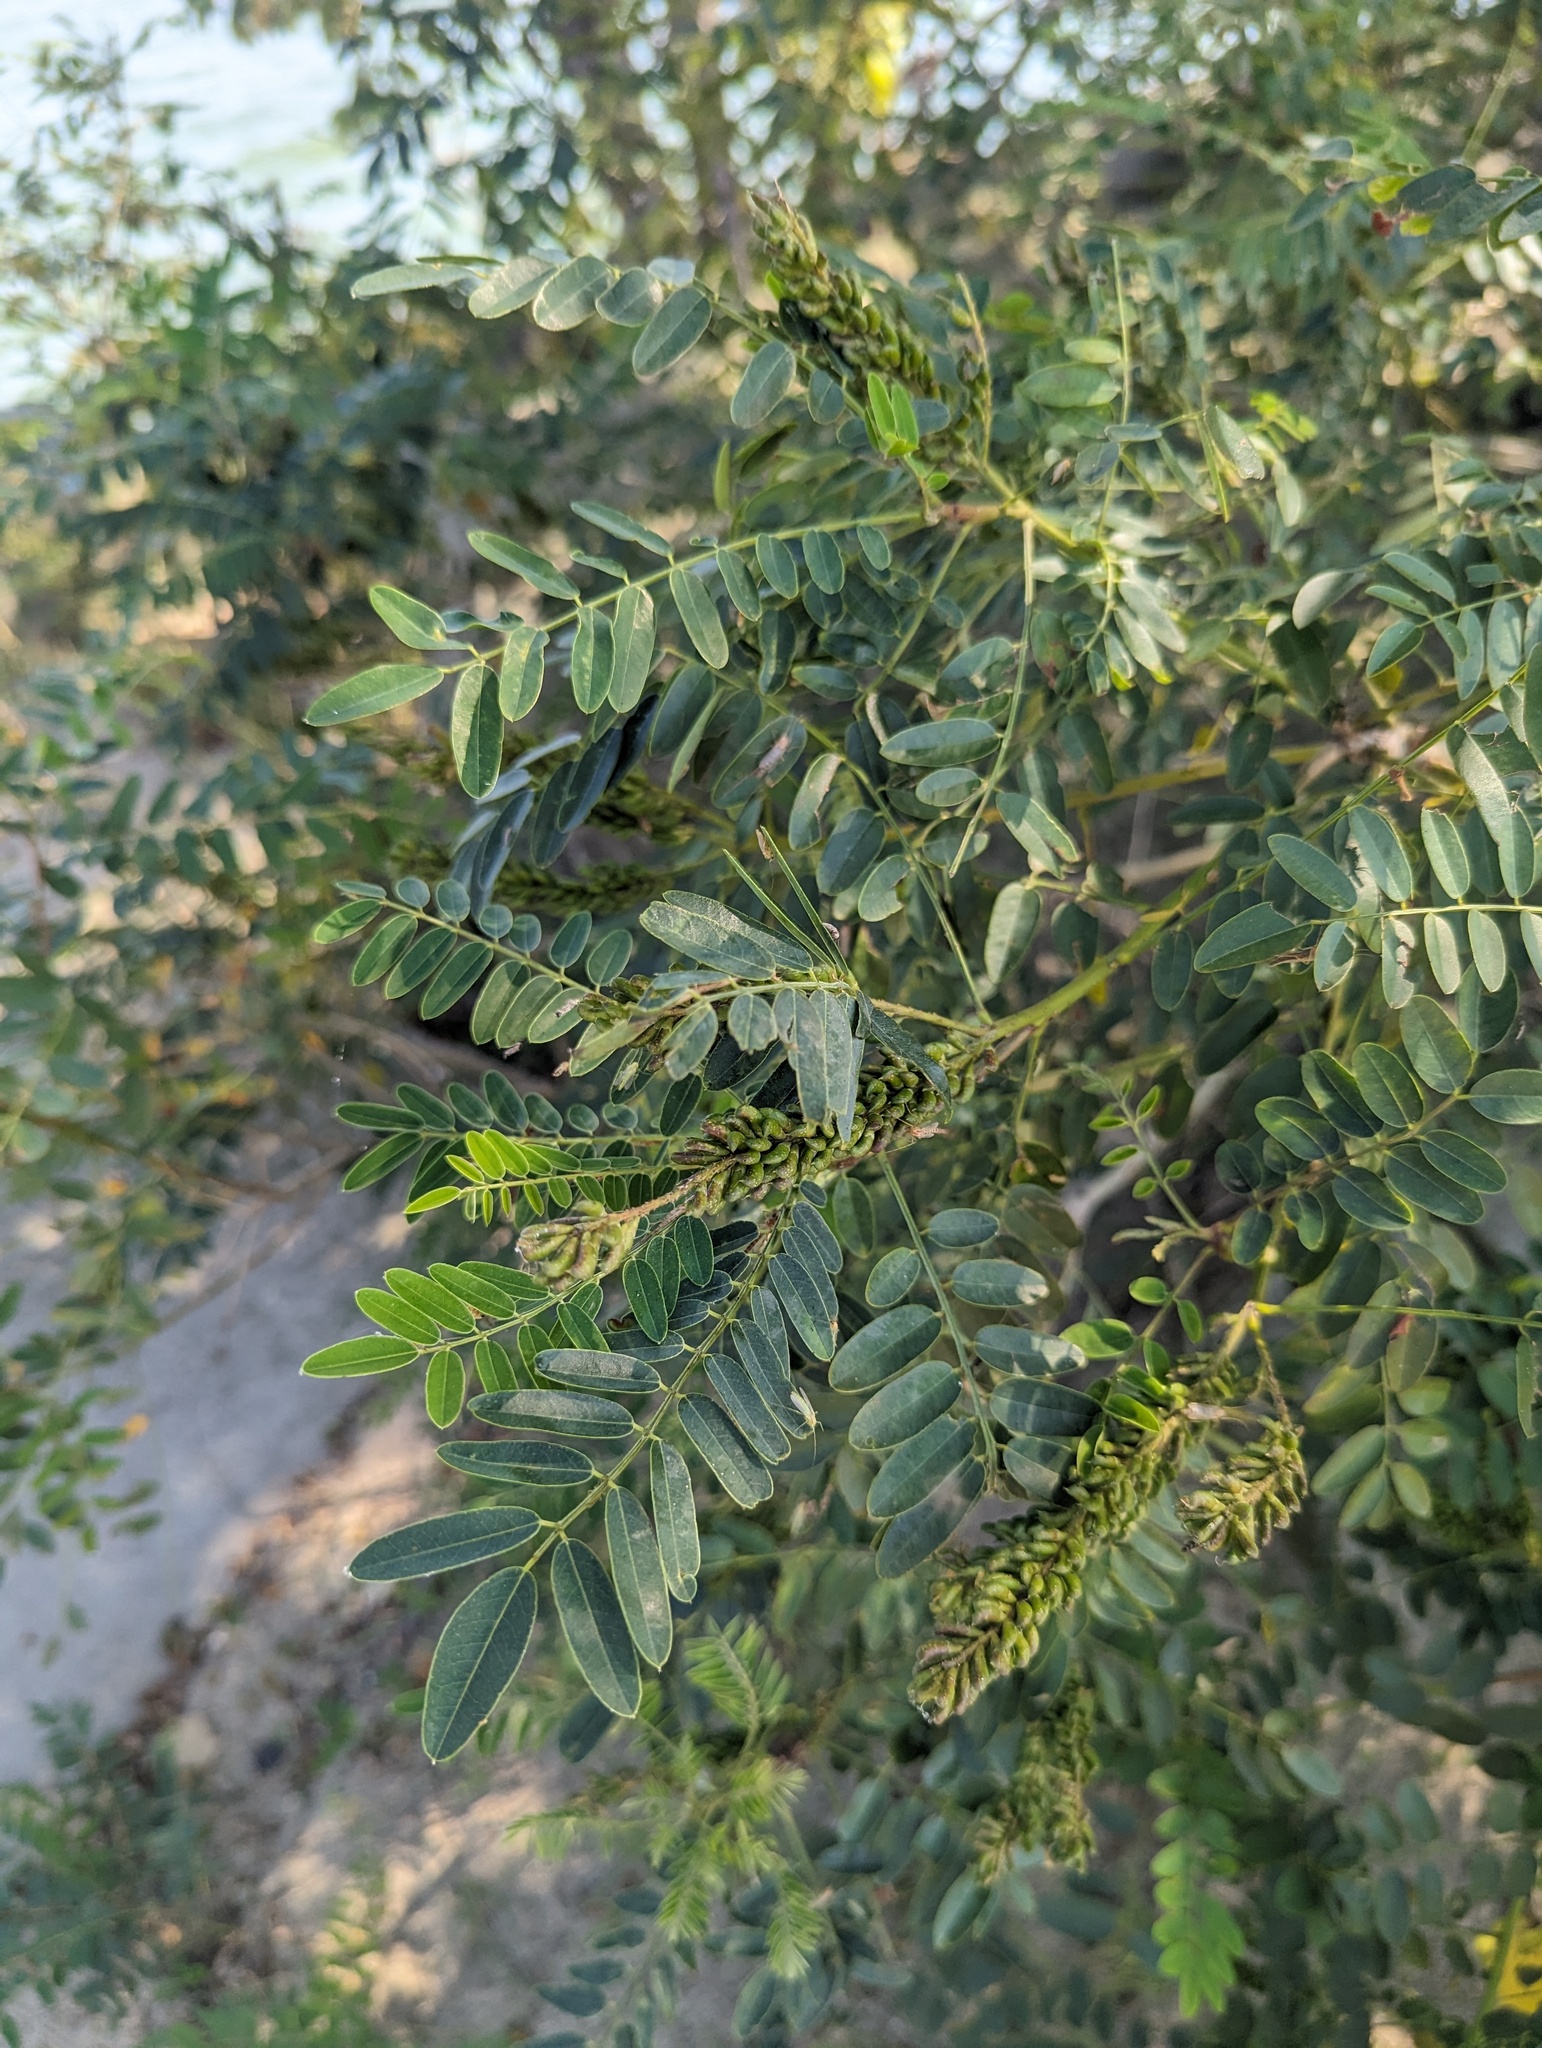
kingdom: Plantae
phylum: Tracheophyta
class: Magnoliopsida
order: Fabales
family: Fabaceae
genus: Amorpha
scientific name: Amorpha fruticosa
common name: False indigo
